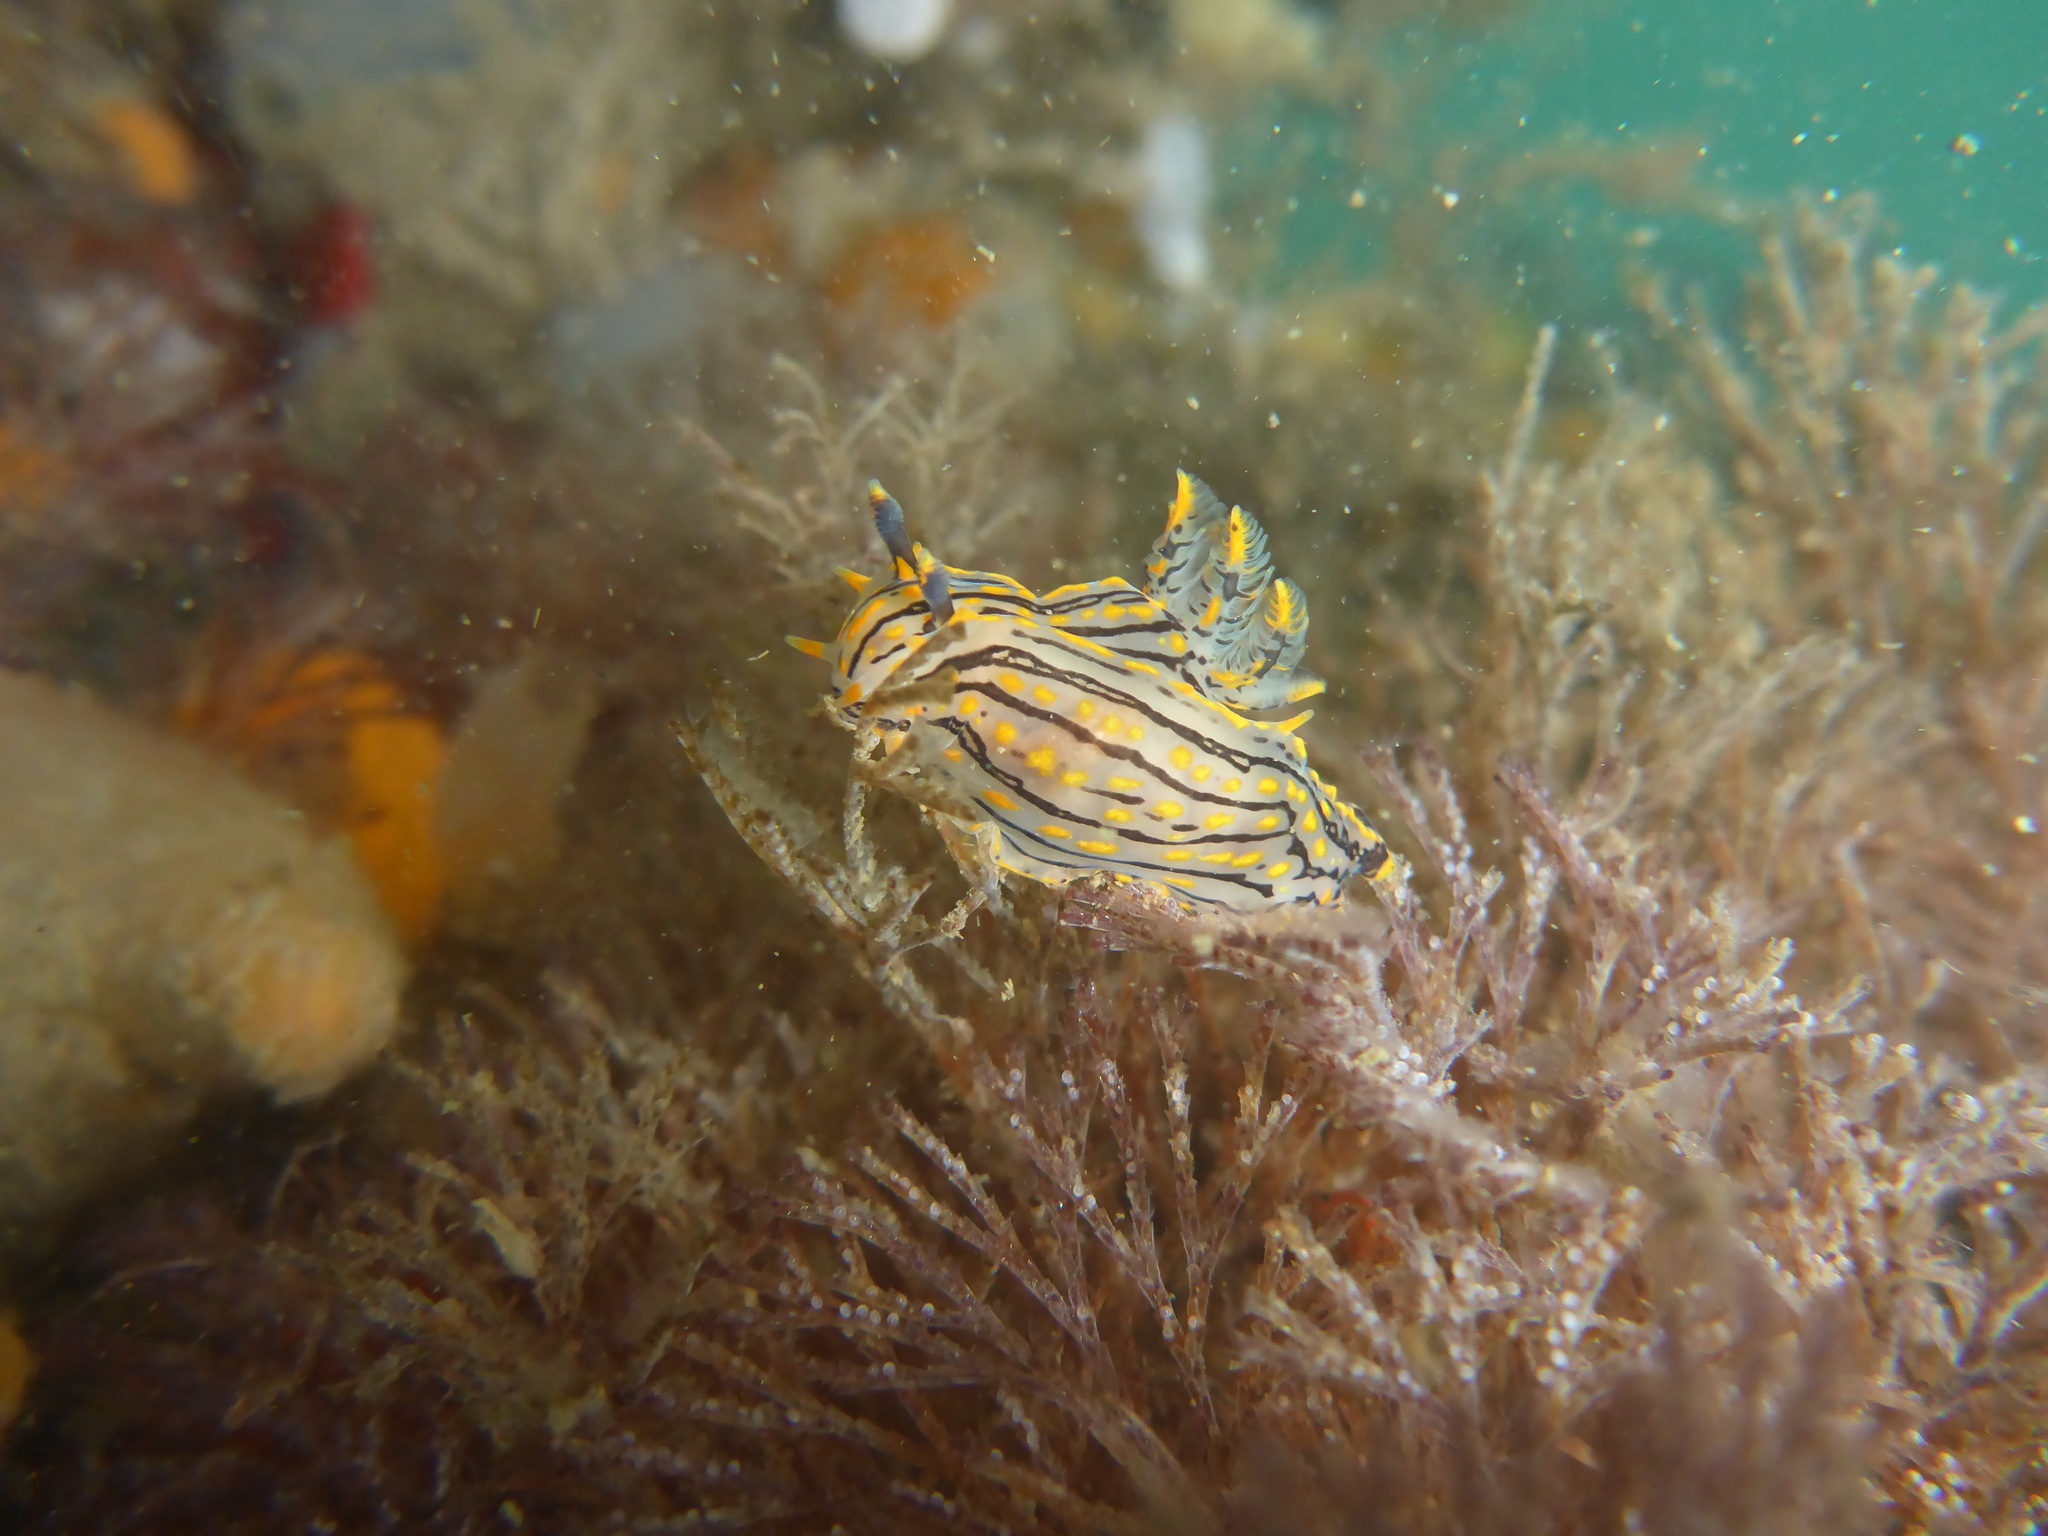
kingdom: Animalia
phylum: Mollusca
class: Gastropoda
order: Nudibranchia
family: Polyceridae
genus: Polycera
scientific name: Polycera atra
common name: Orange-spike polycera
